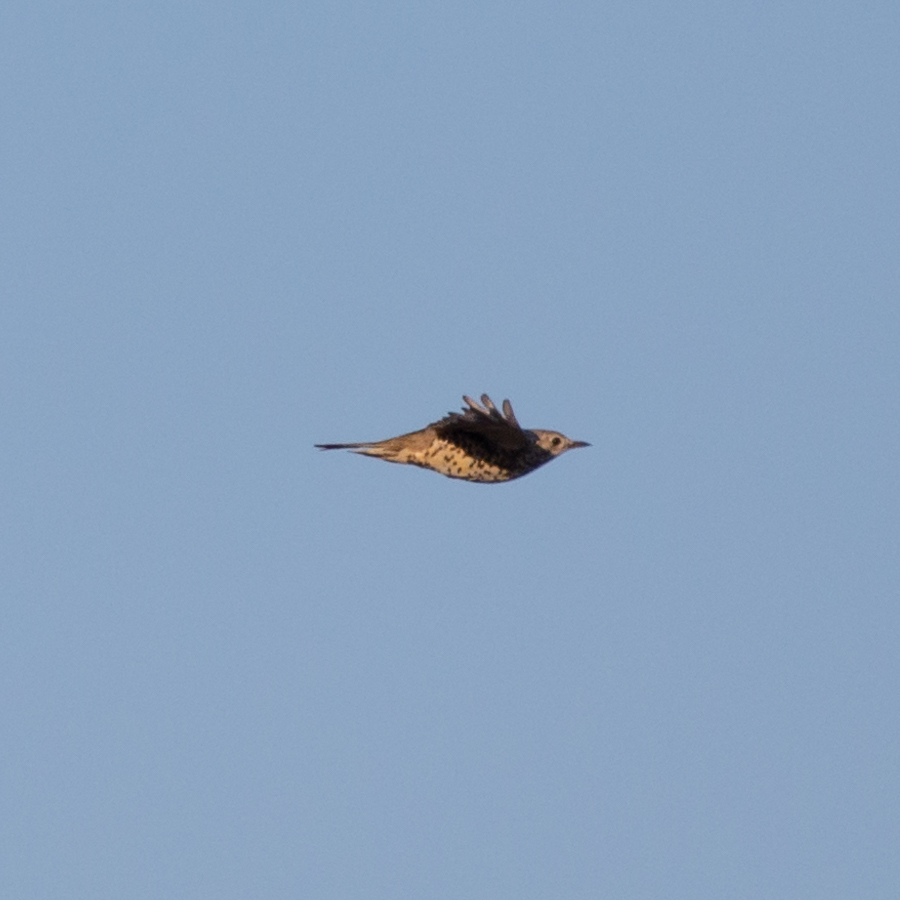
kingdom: Animalia
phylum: Chordata
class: Aves
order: Passeriformes
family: Turdidae
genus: Turdus
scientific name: Turdus viscivorus
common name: Mistle thrush
